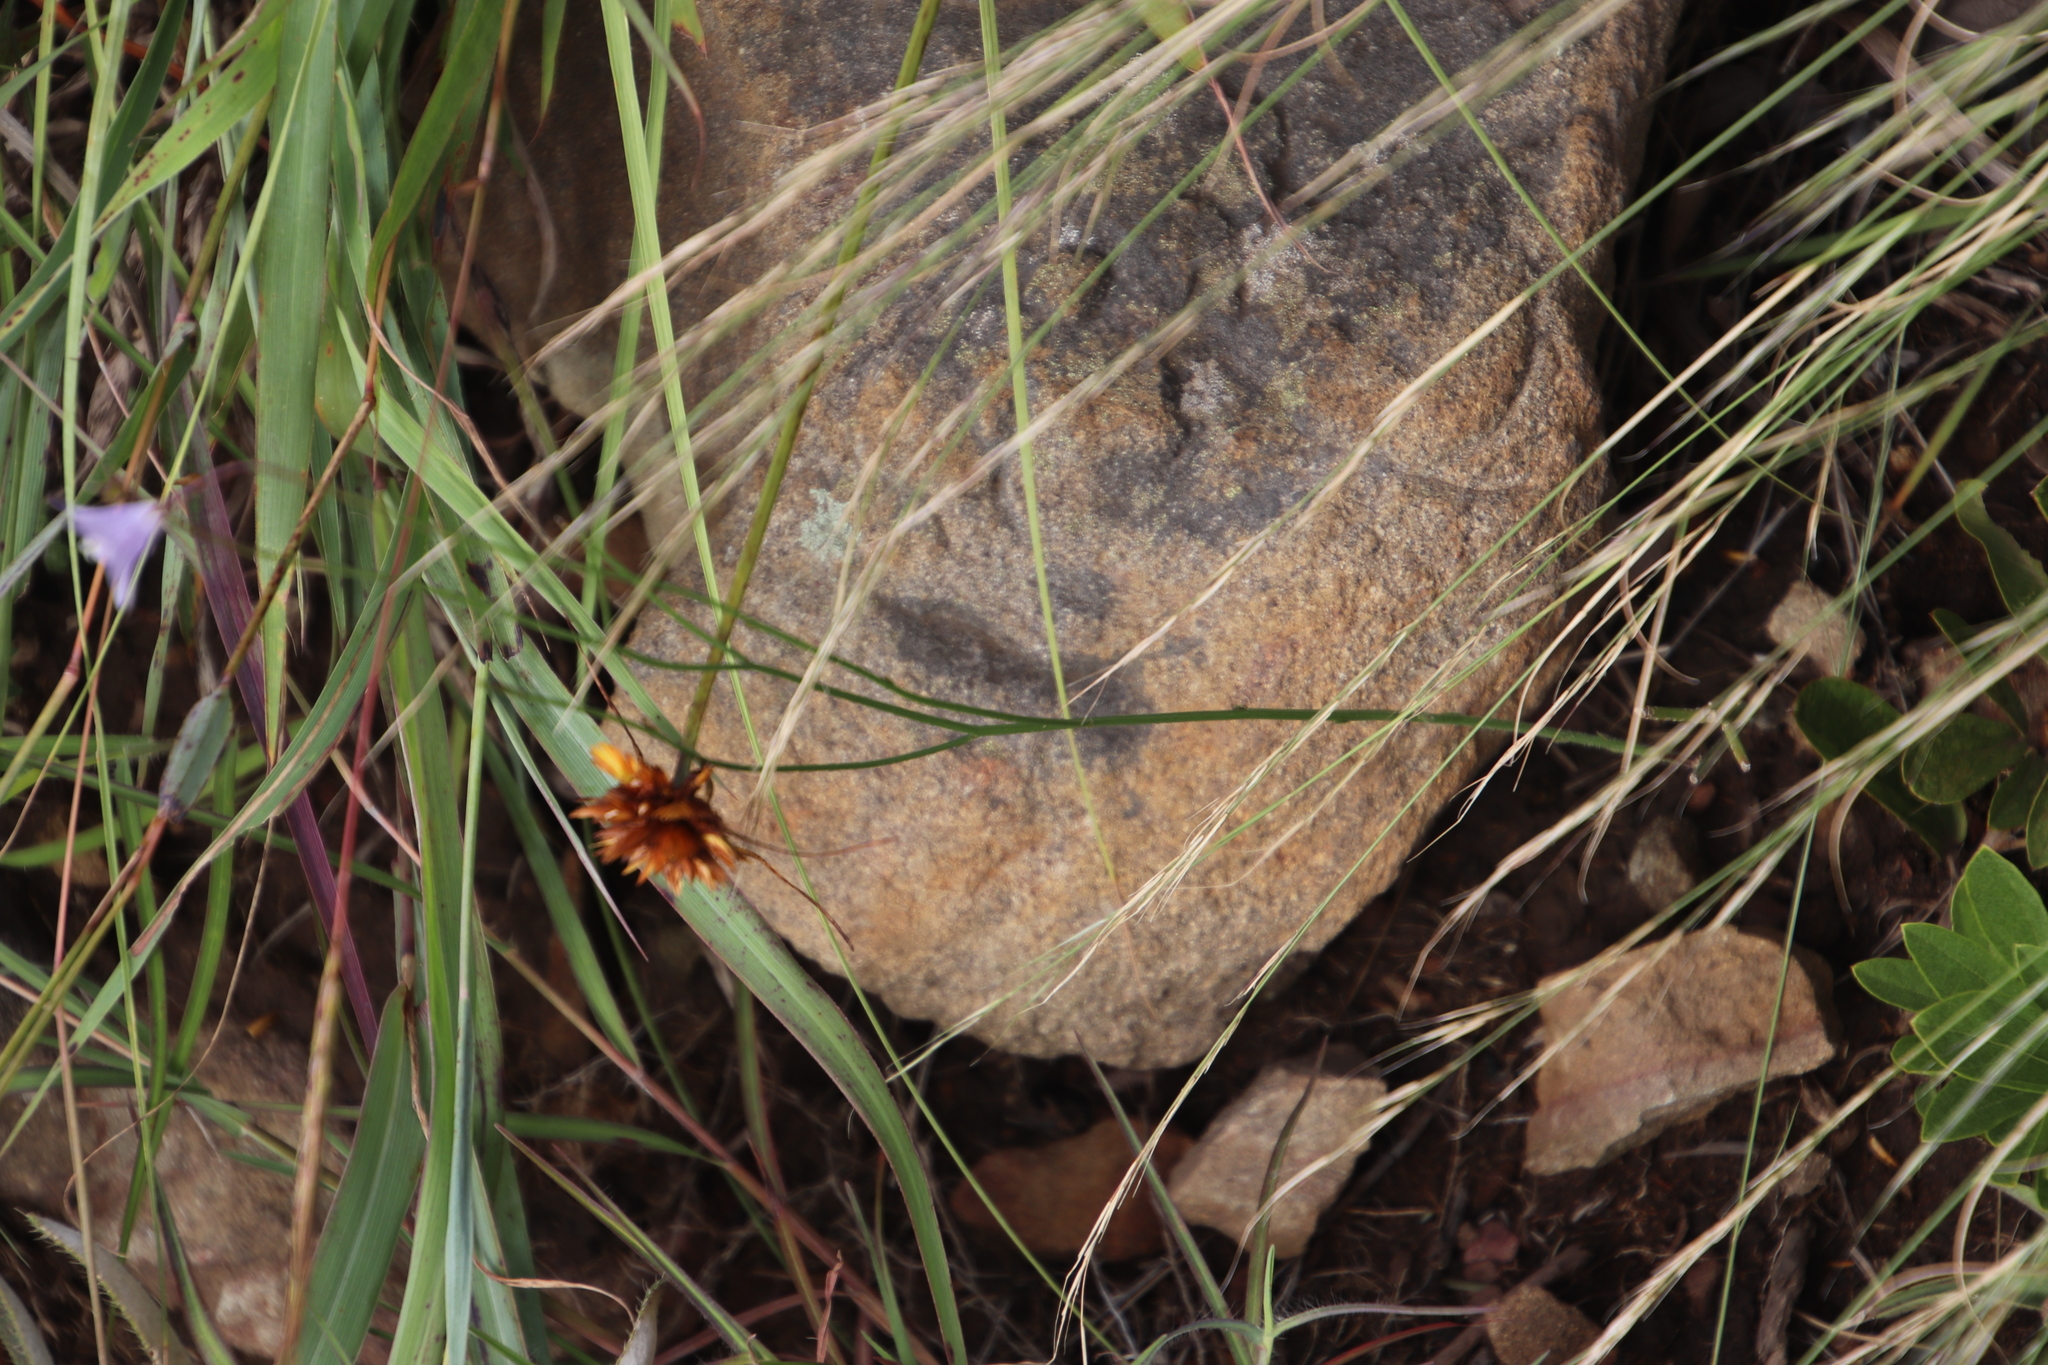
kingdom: Plantae
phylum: Tracheophyta
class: Liliopsida
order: Poales
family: Cyperaceae
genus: Cyperus
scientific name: Cyperus sphaerocephalus
